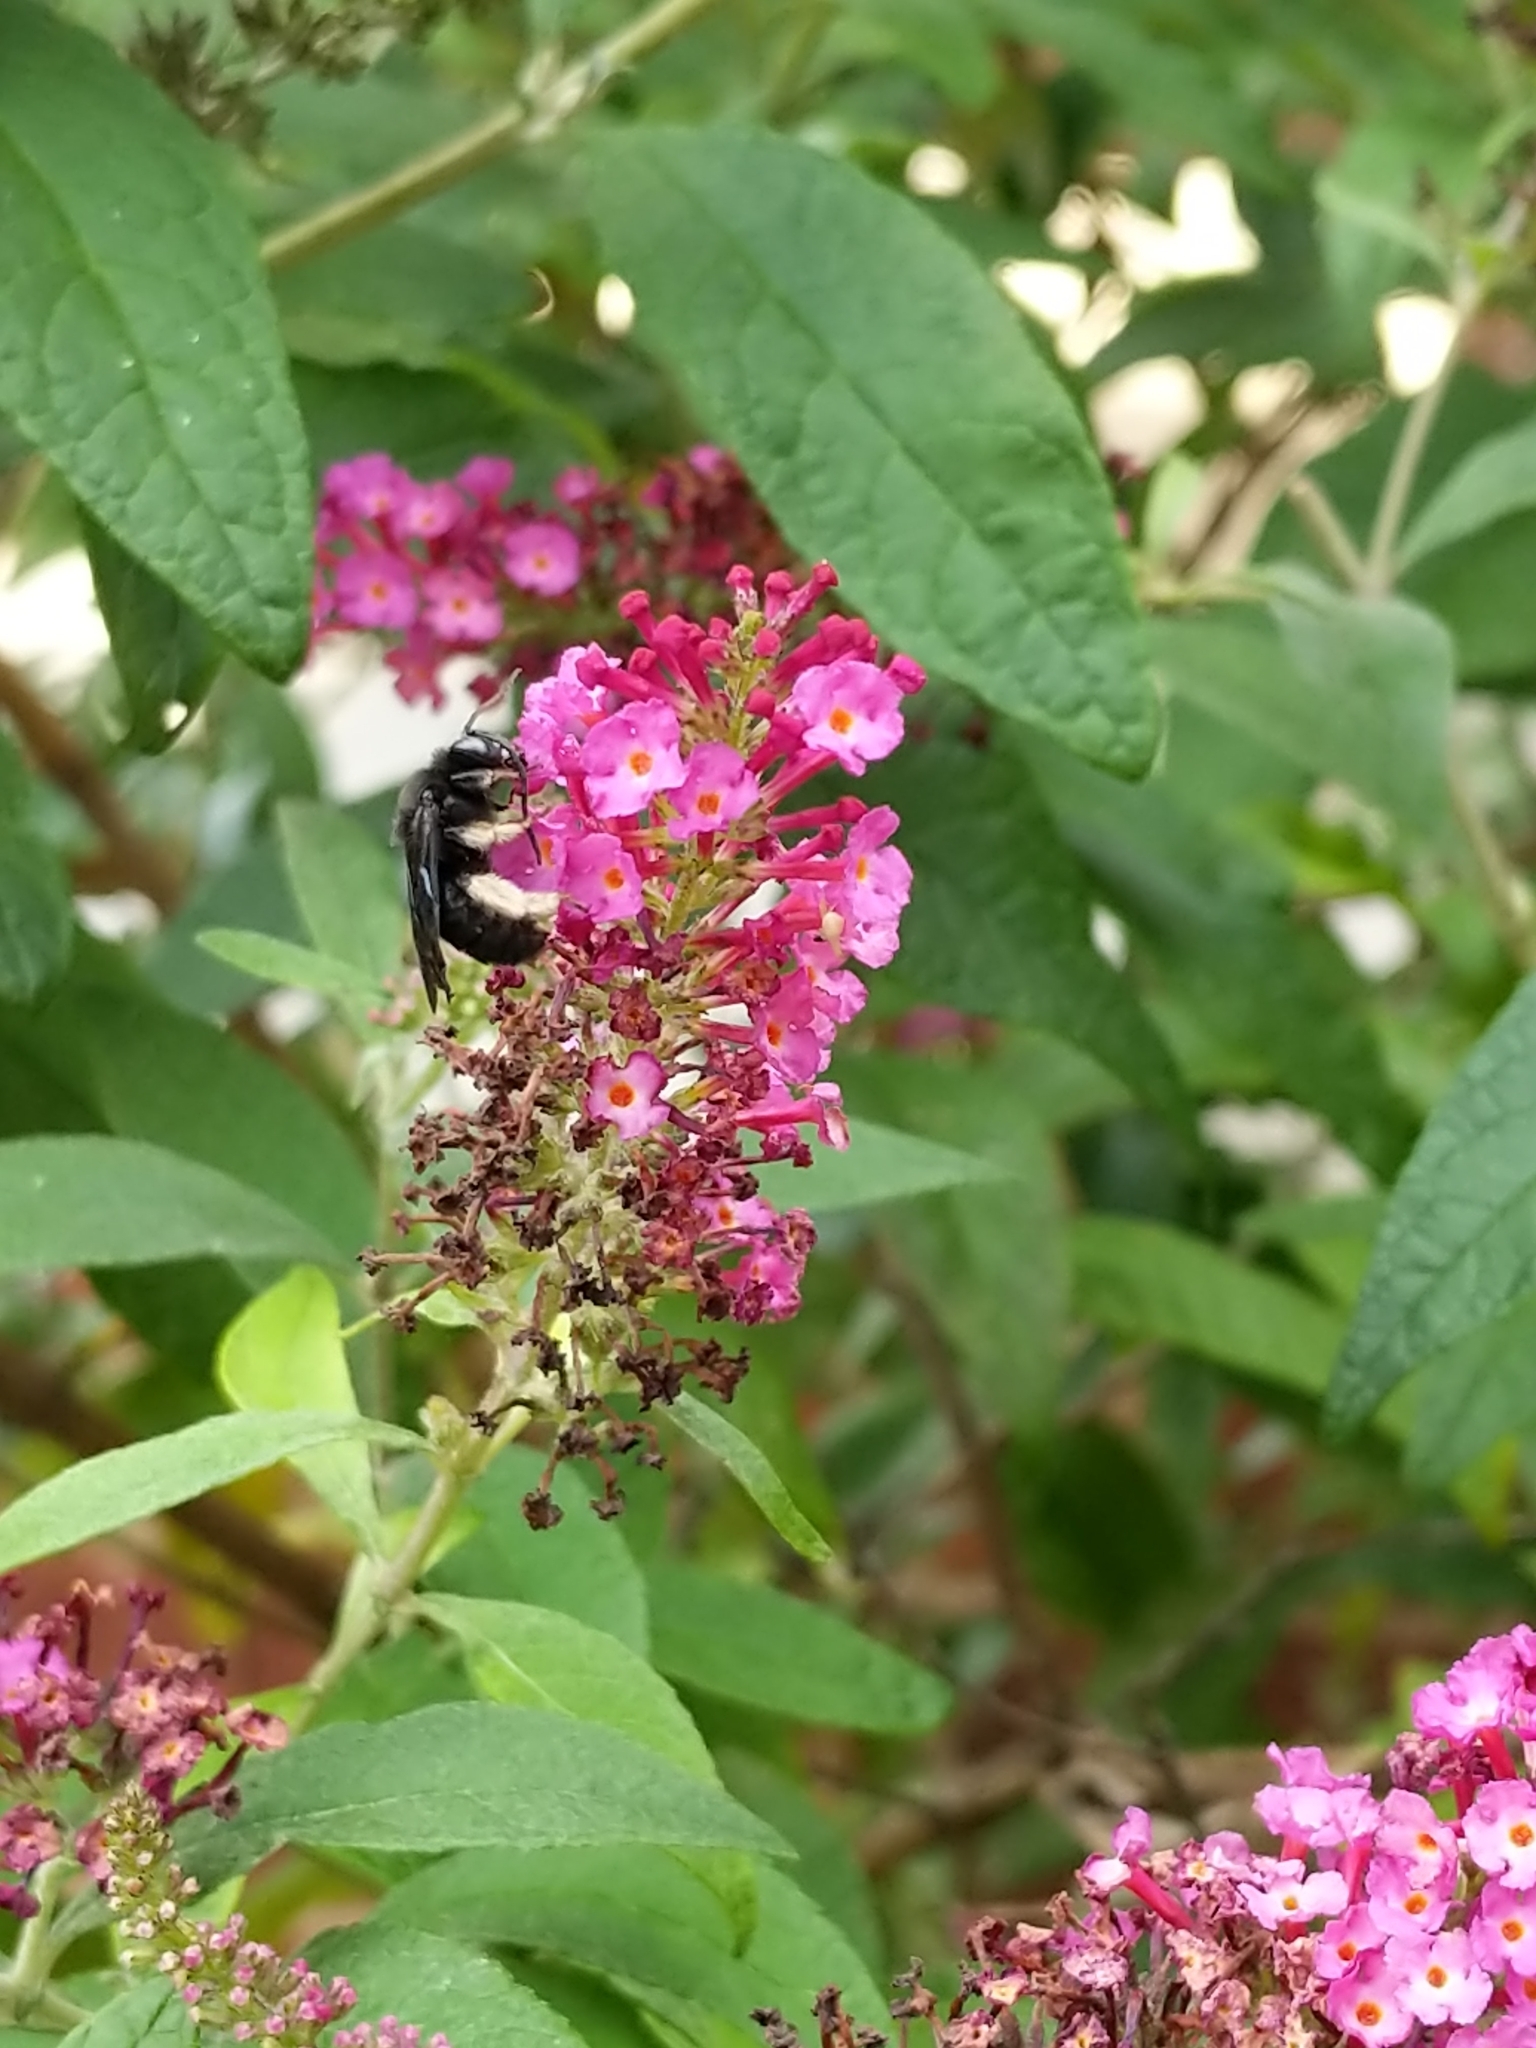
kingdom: Animalia
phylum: Arthropoda
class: Insecta
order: Hymenoptera
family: Apidae
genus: Melissodes
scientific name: Melissodes bimaculatus
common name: Two-spotted long-horned bee
